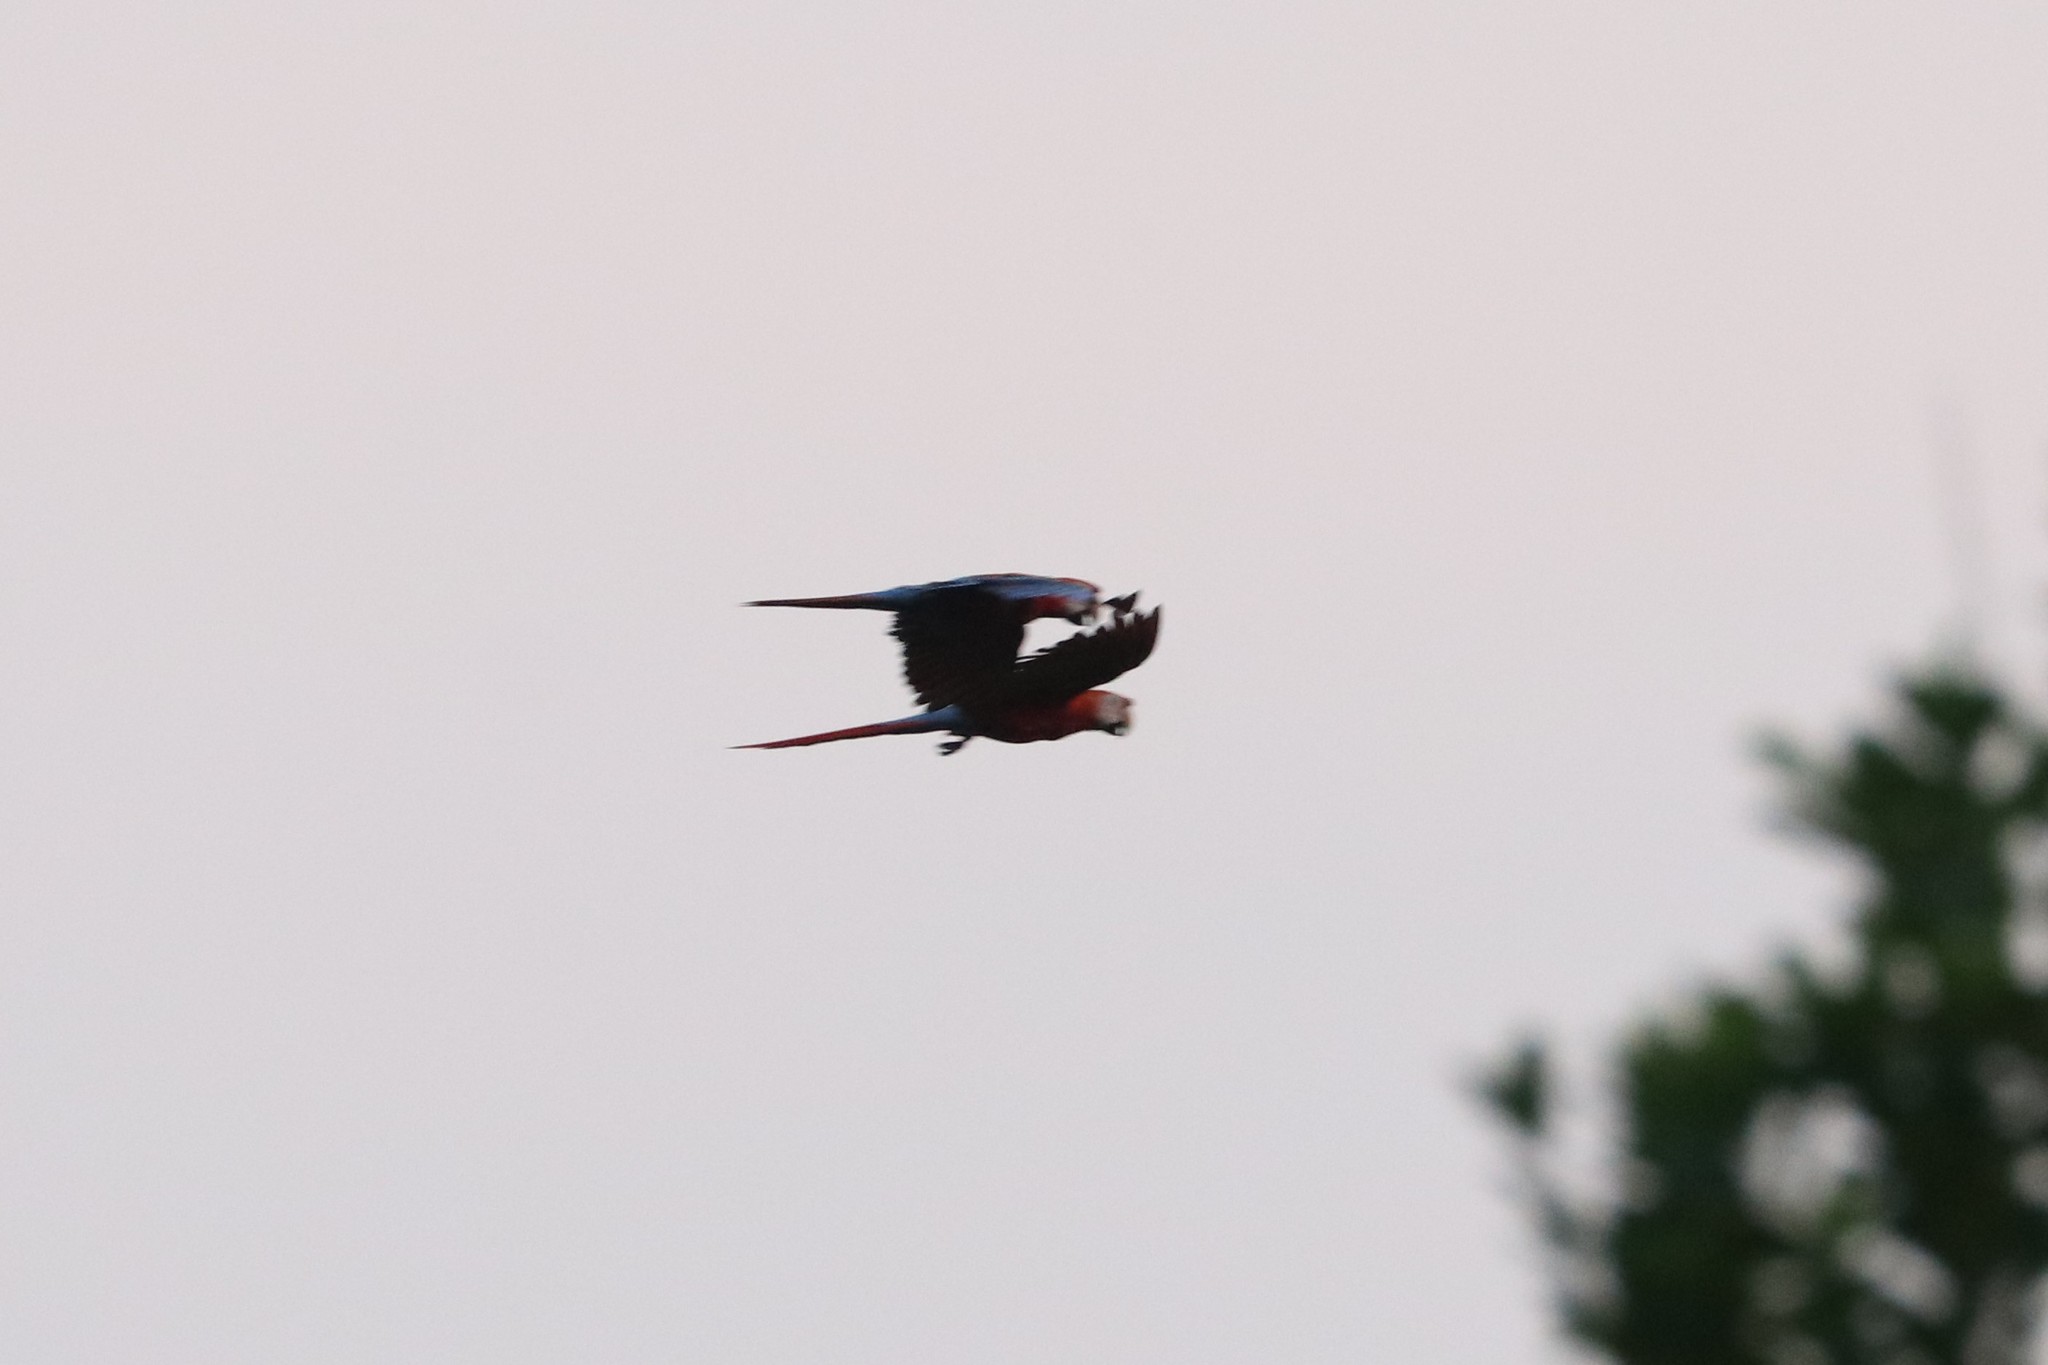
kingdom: Animalia
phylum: Chordata
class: Aves
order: Psittaciformes
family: Psittacidae
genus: Ara
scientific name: Ara macao
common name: Scarlet macaw
